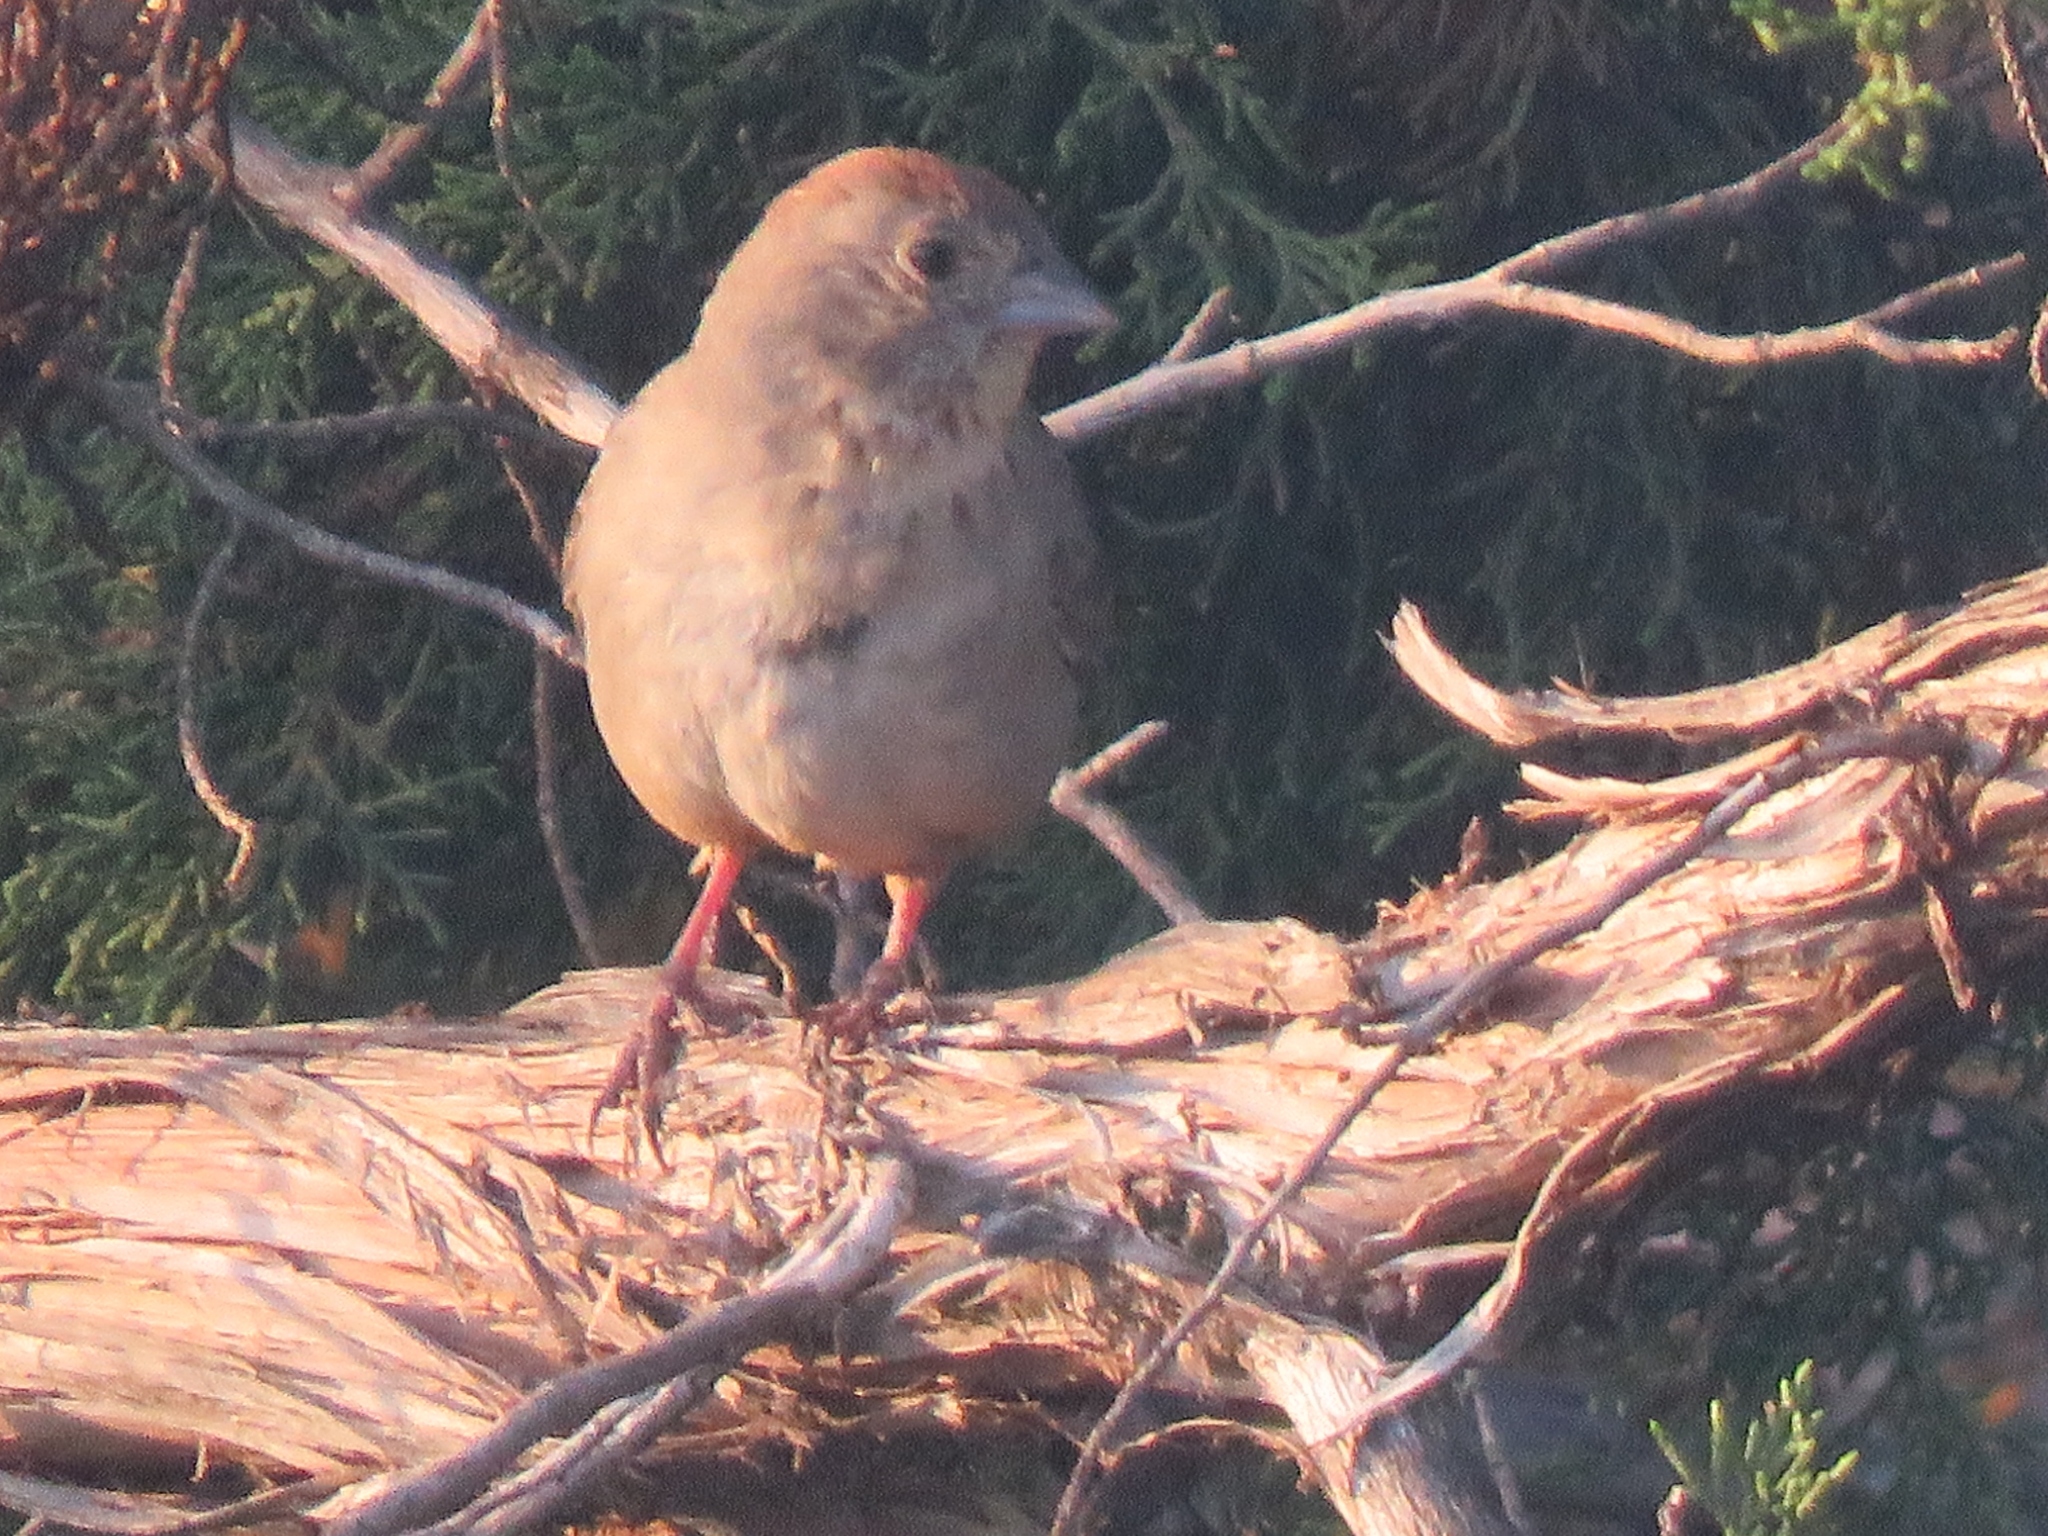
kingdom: Animalia
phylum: Chordata
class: Aves
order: Passeriformes
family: Passerellidae
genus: Melozone
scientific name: Melozone fusca
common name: Canyon towhee
